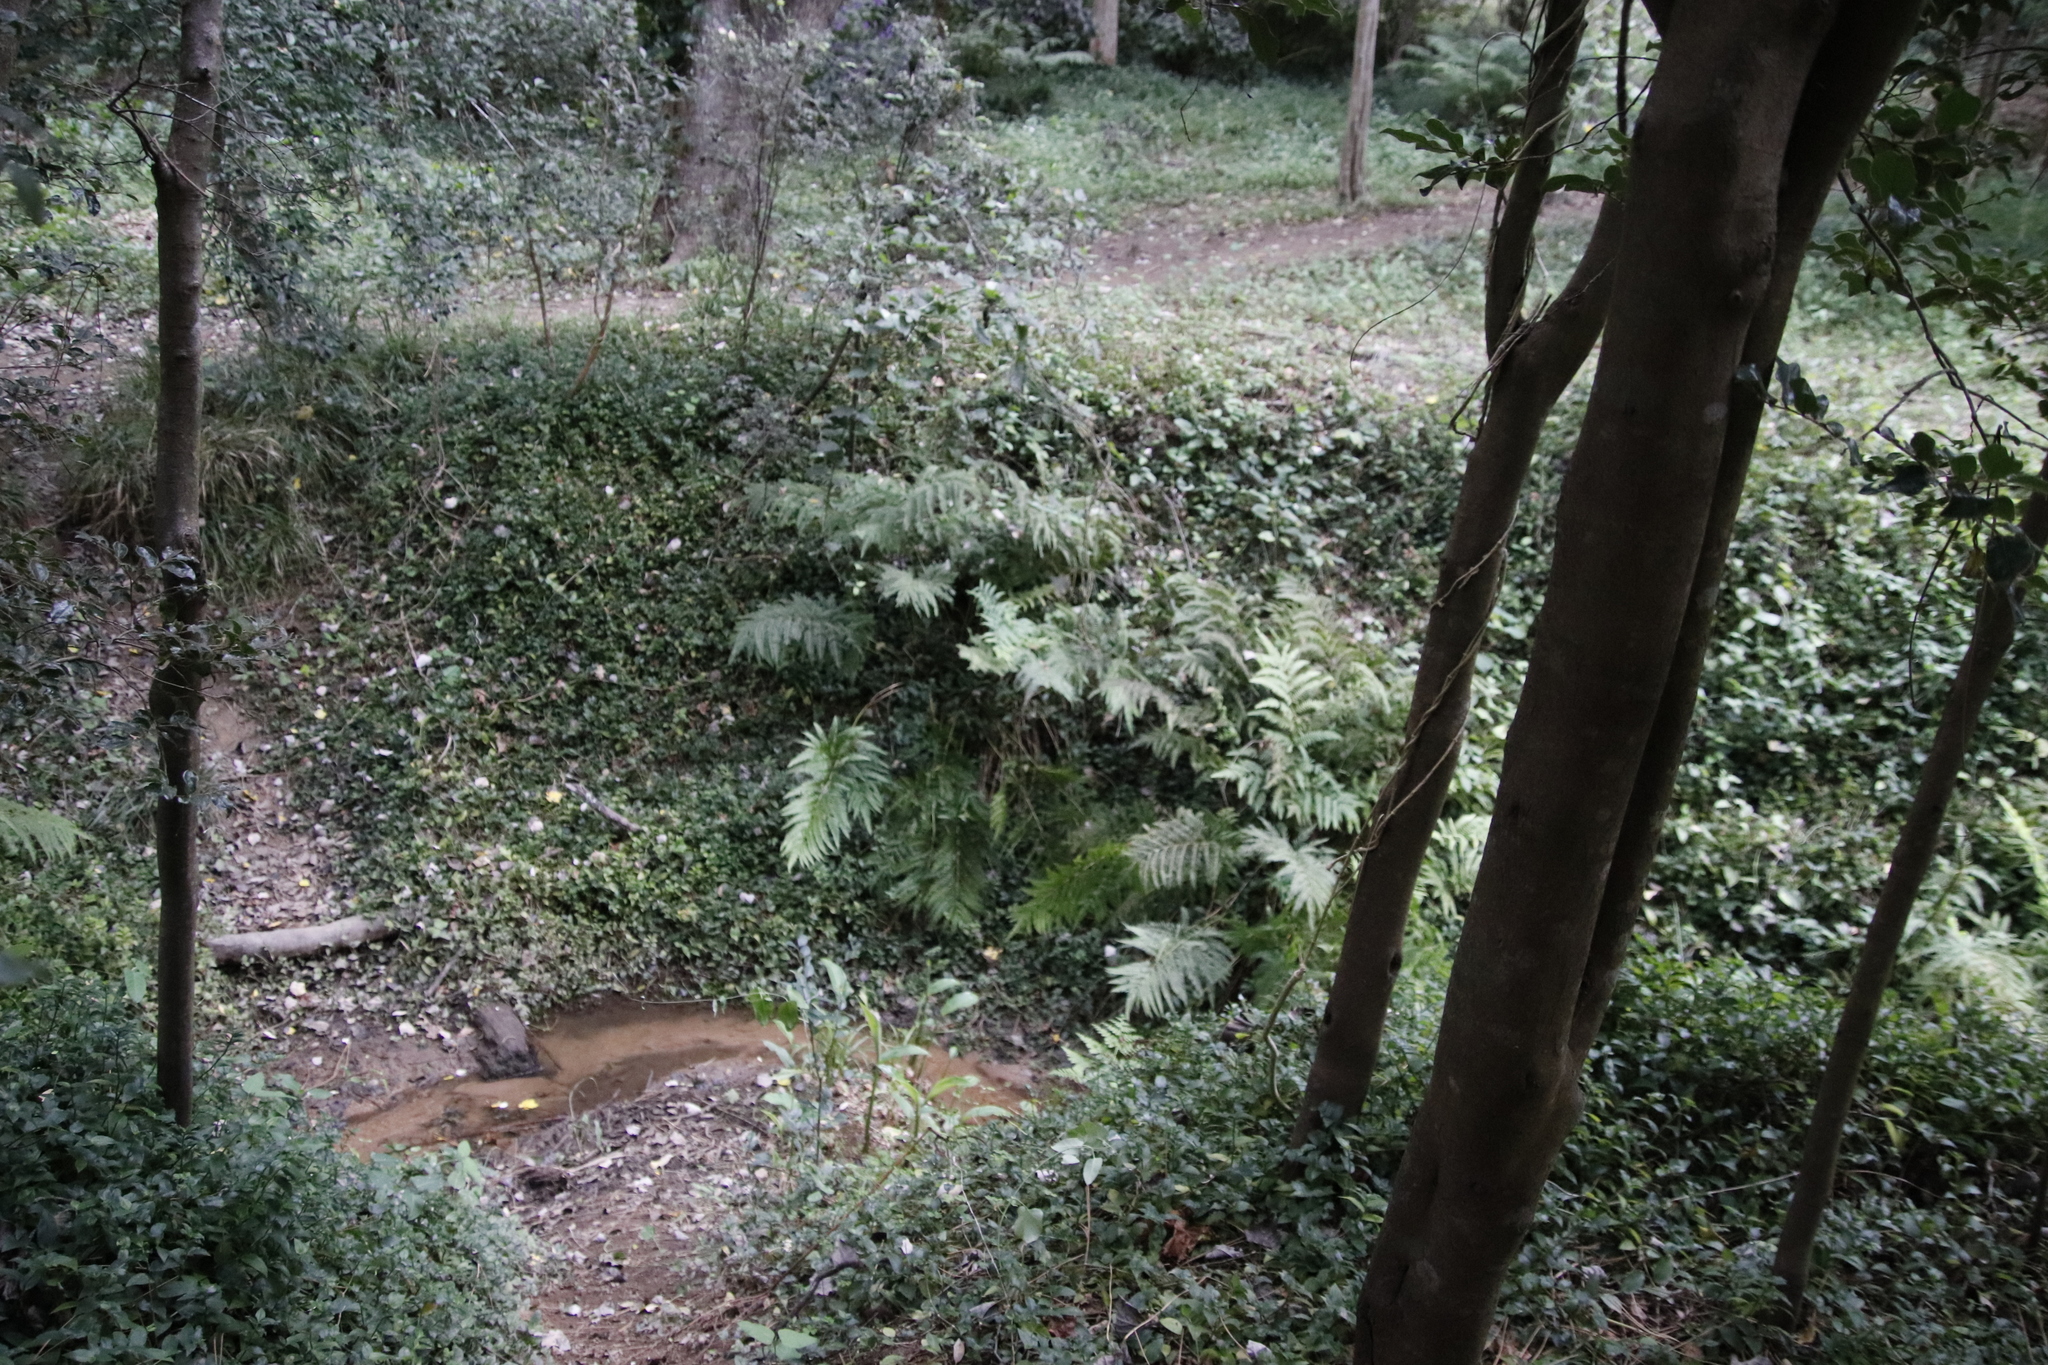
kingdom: Plantae
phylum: Tracheophyta
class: Polypodiopsida
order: Polypodiales
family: Pteridaceae
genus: Pteris
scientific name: Pteris dentata
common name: Toothed brake
